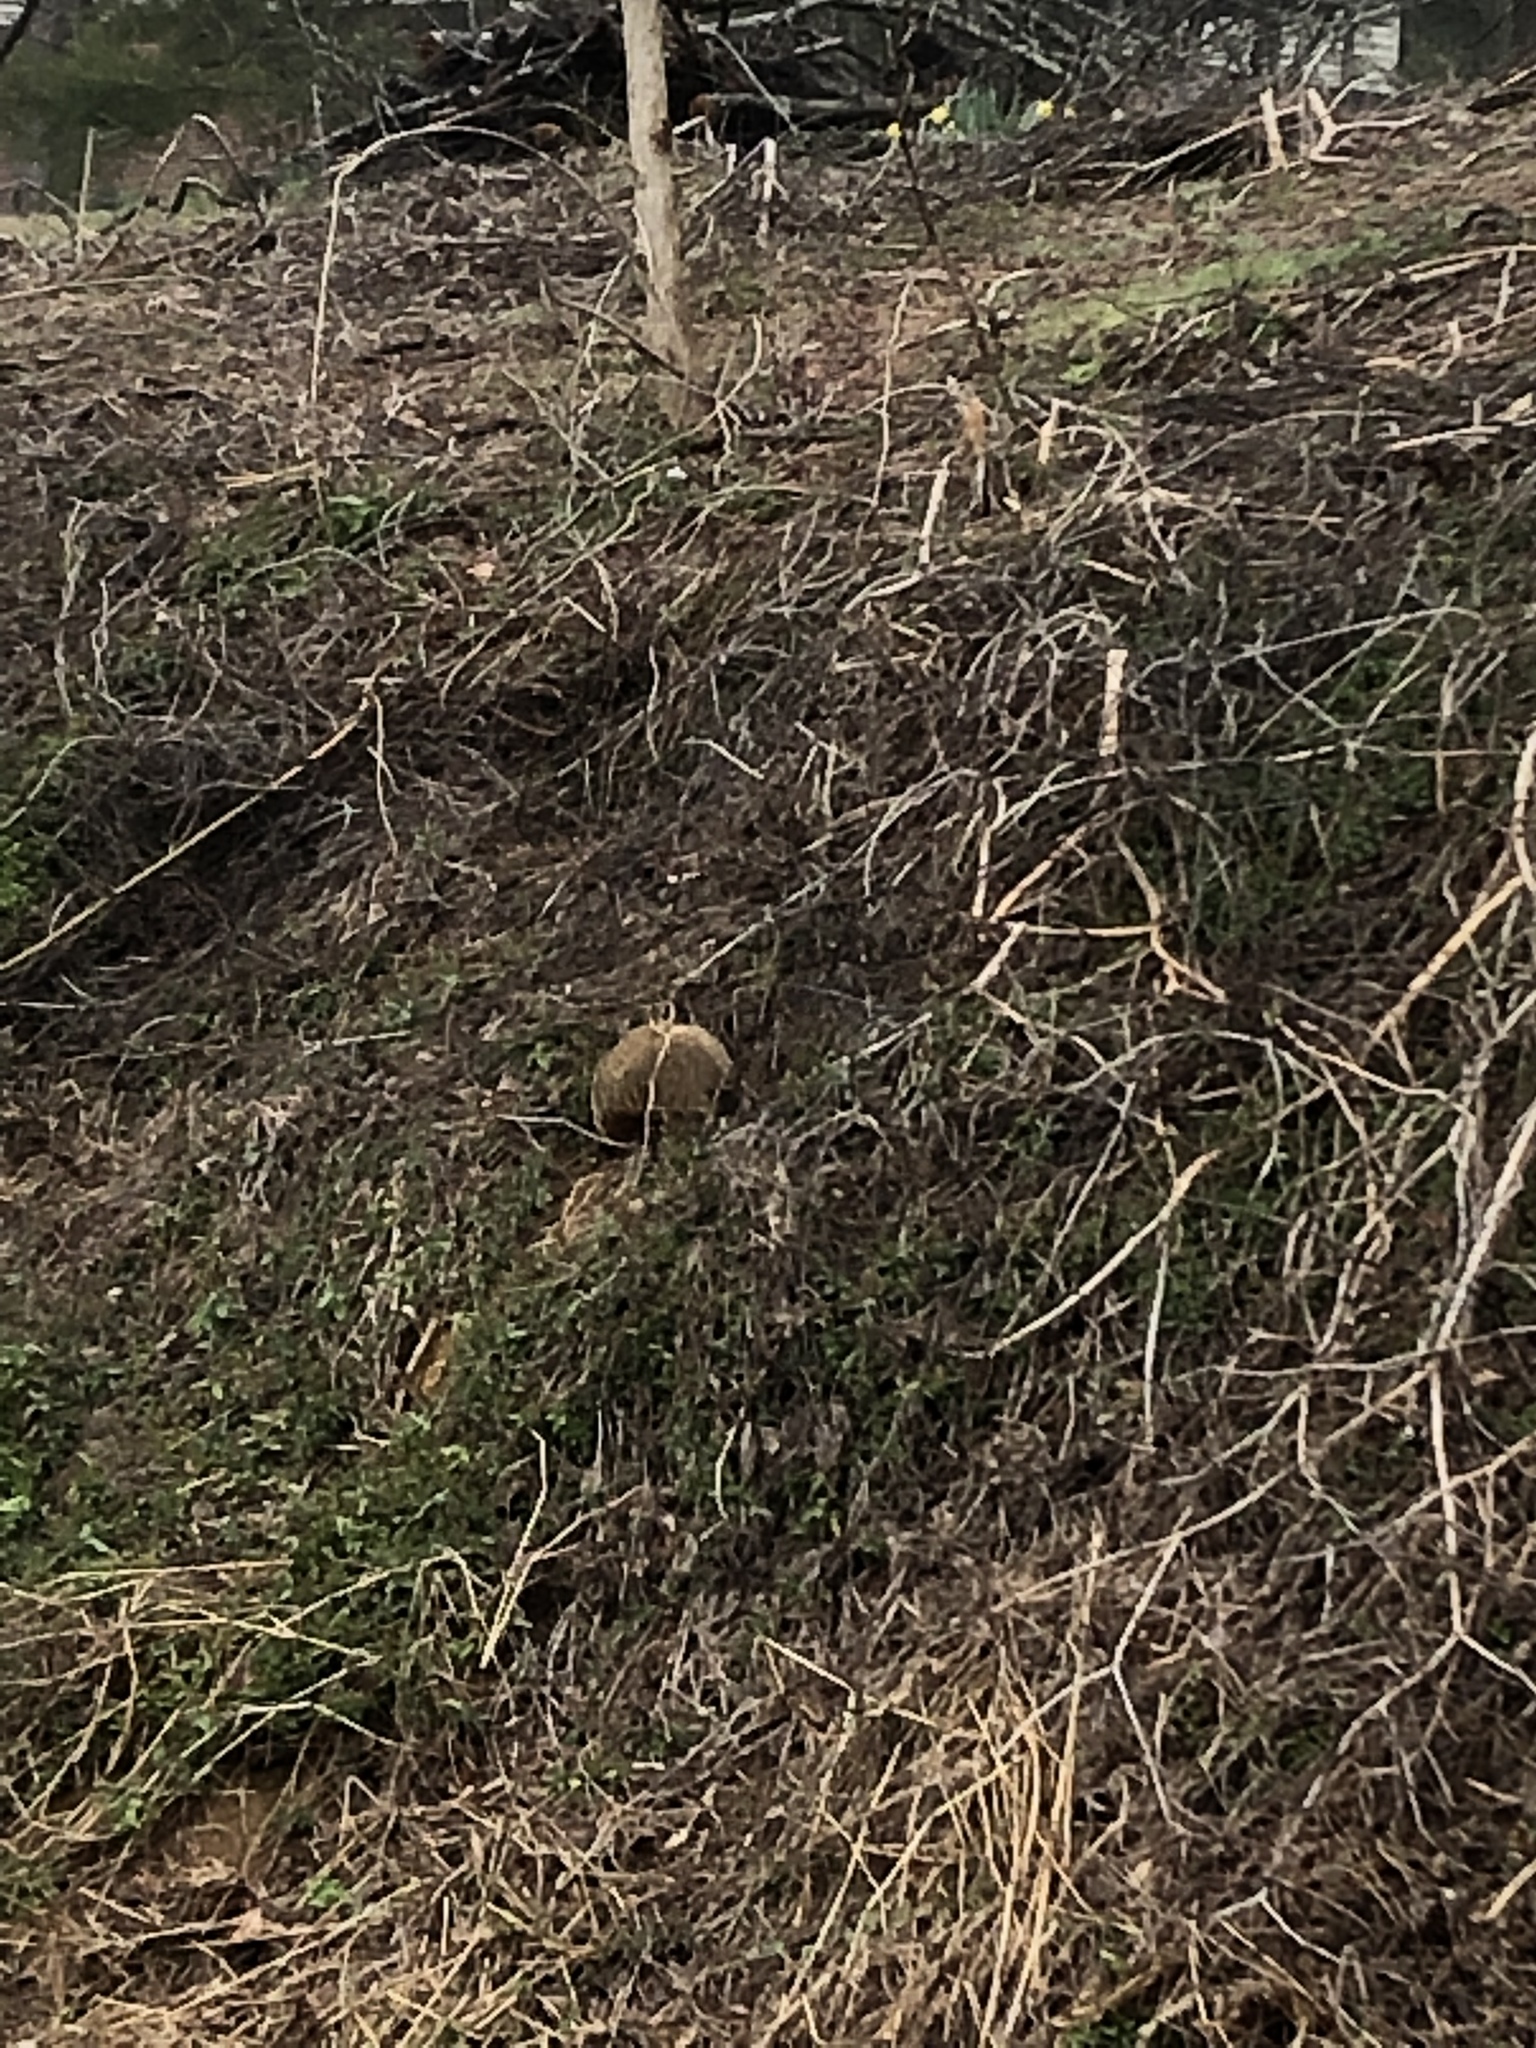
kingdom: Animalia
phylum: Chordata
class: Mammalia
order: Rodentia
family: Sciuridae
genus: Marmota
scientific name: Marmota monax
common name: Groundhog
